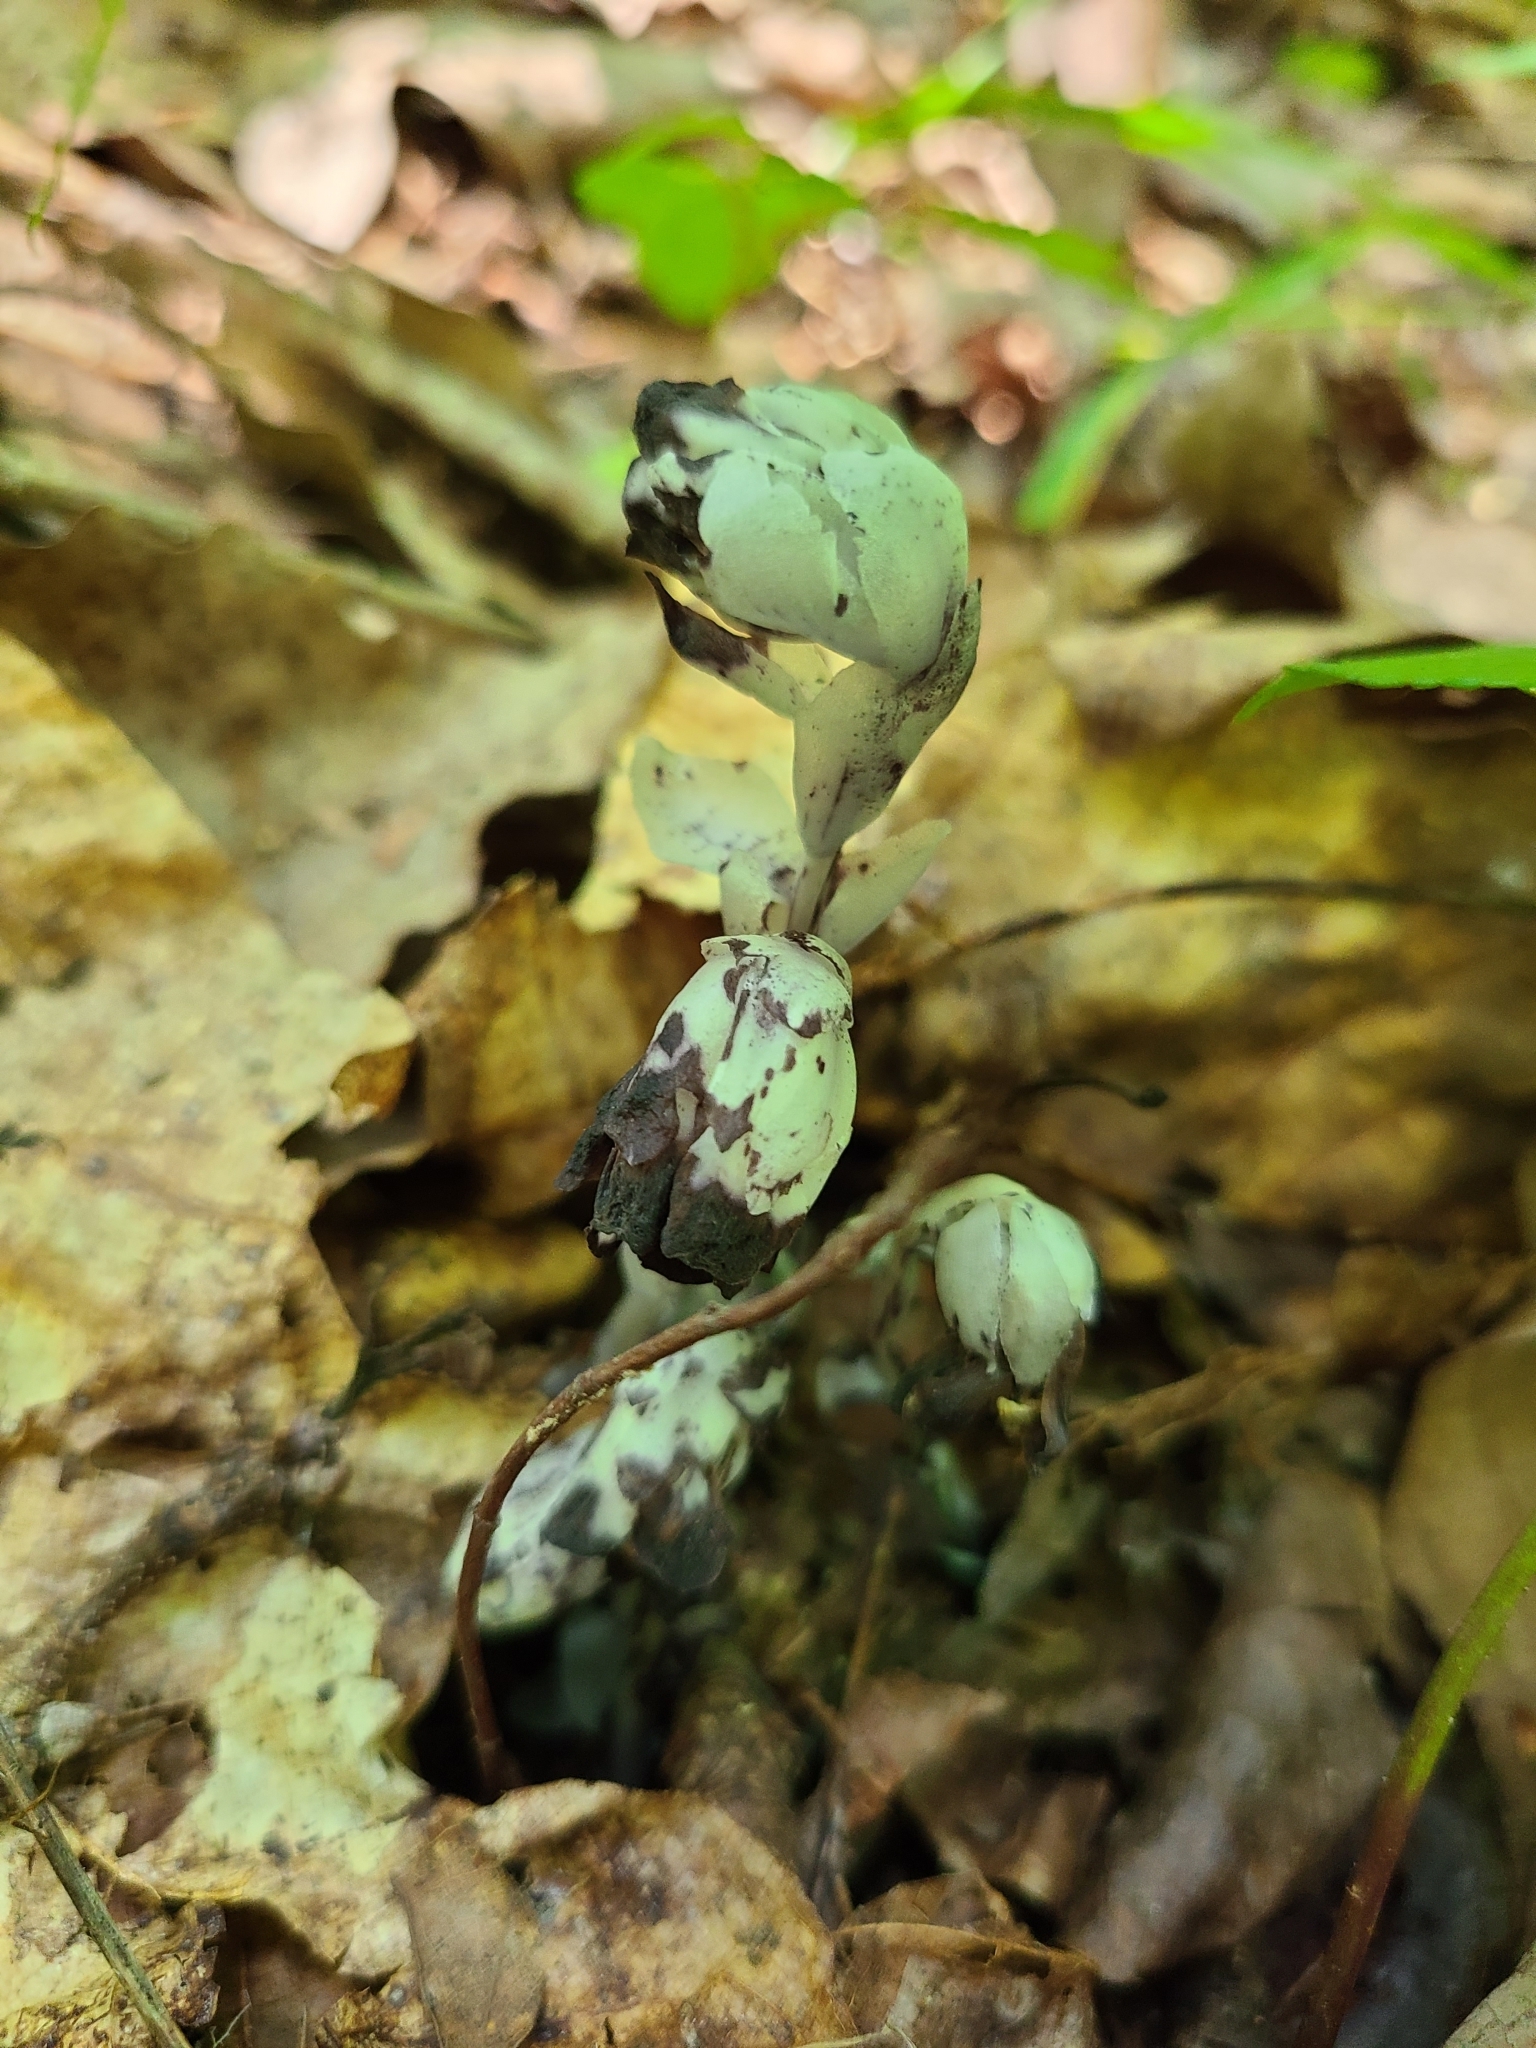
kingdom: Plantae
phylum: Tracheophyta
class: Magnoliopsida
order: Ericales
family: Ericaceae
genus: Monotropa
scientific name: Monotropa uniflora
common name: Convulsion root
